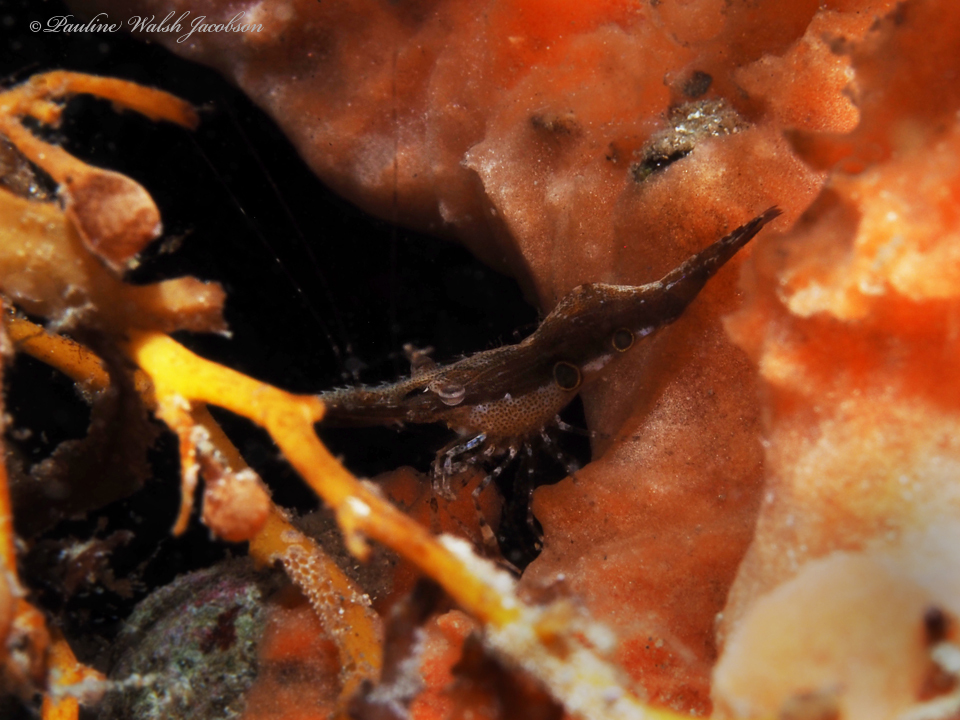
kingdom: Animalia
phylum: Arthropoda
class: Malacostraca
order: Decapoda
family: Palaemonidae
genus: Leander
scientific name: Leander tenuicornis
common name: Brown glass shrimp
